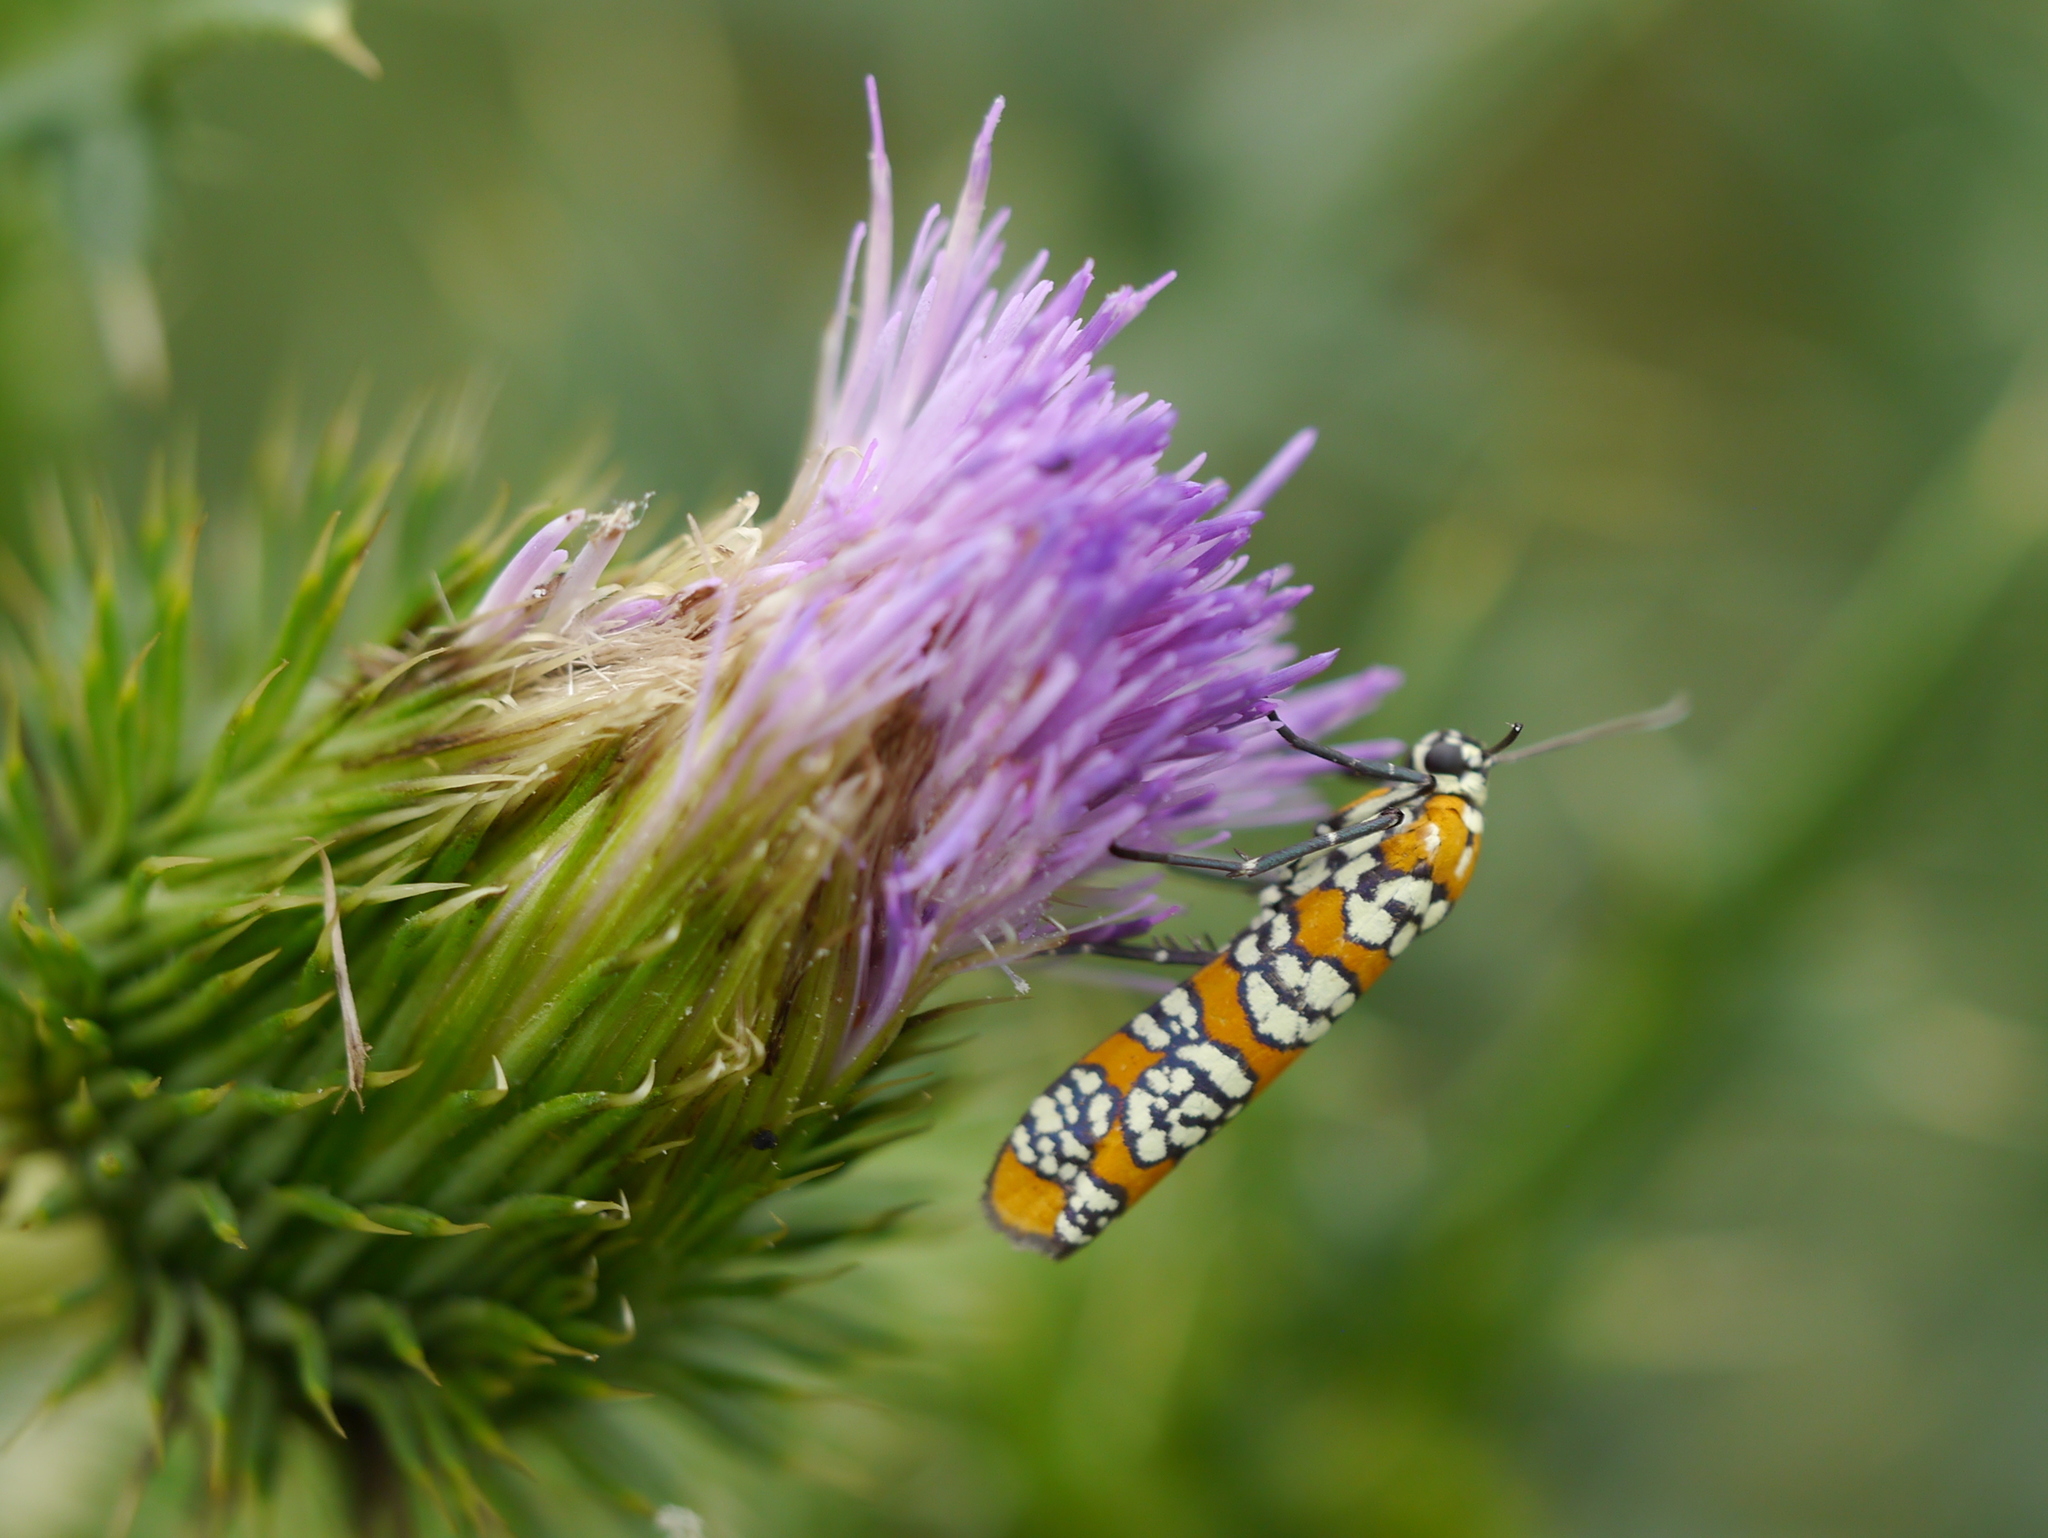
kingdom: Animalia
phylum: Arthropoda
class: Insecta
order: Lepidoptera
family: Attevidae
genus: Atteva
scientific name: Atteva punctella
